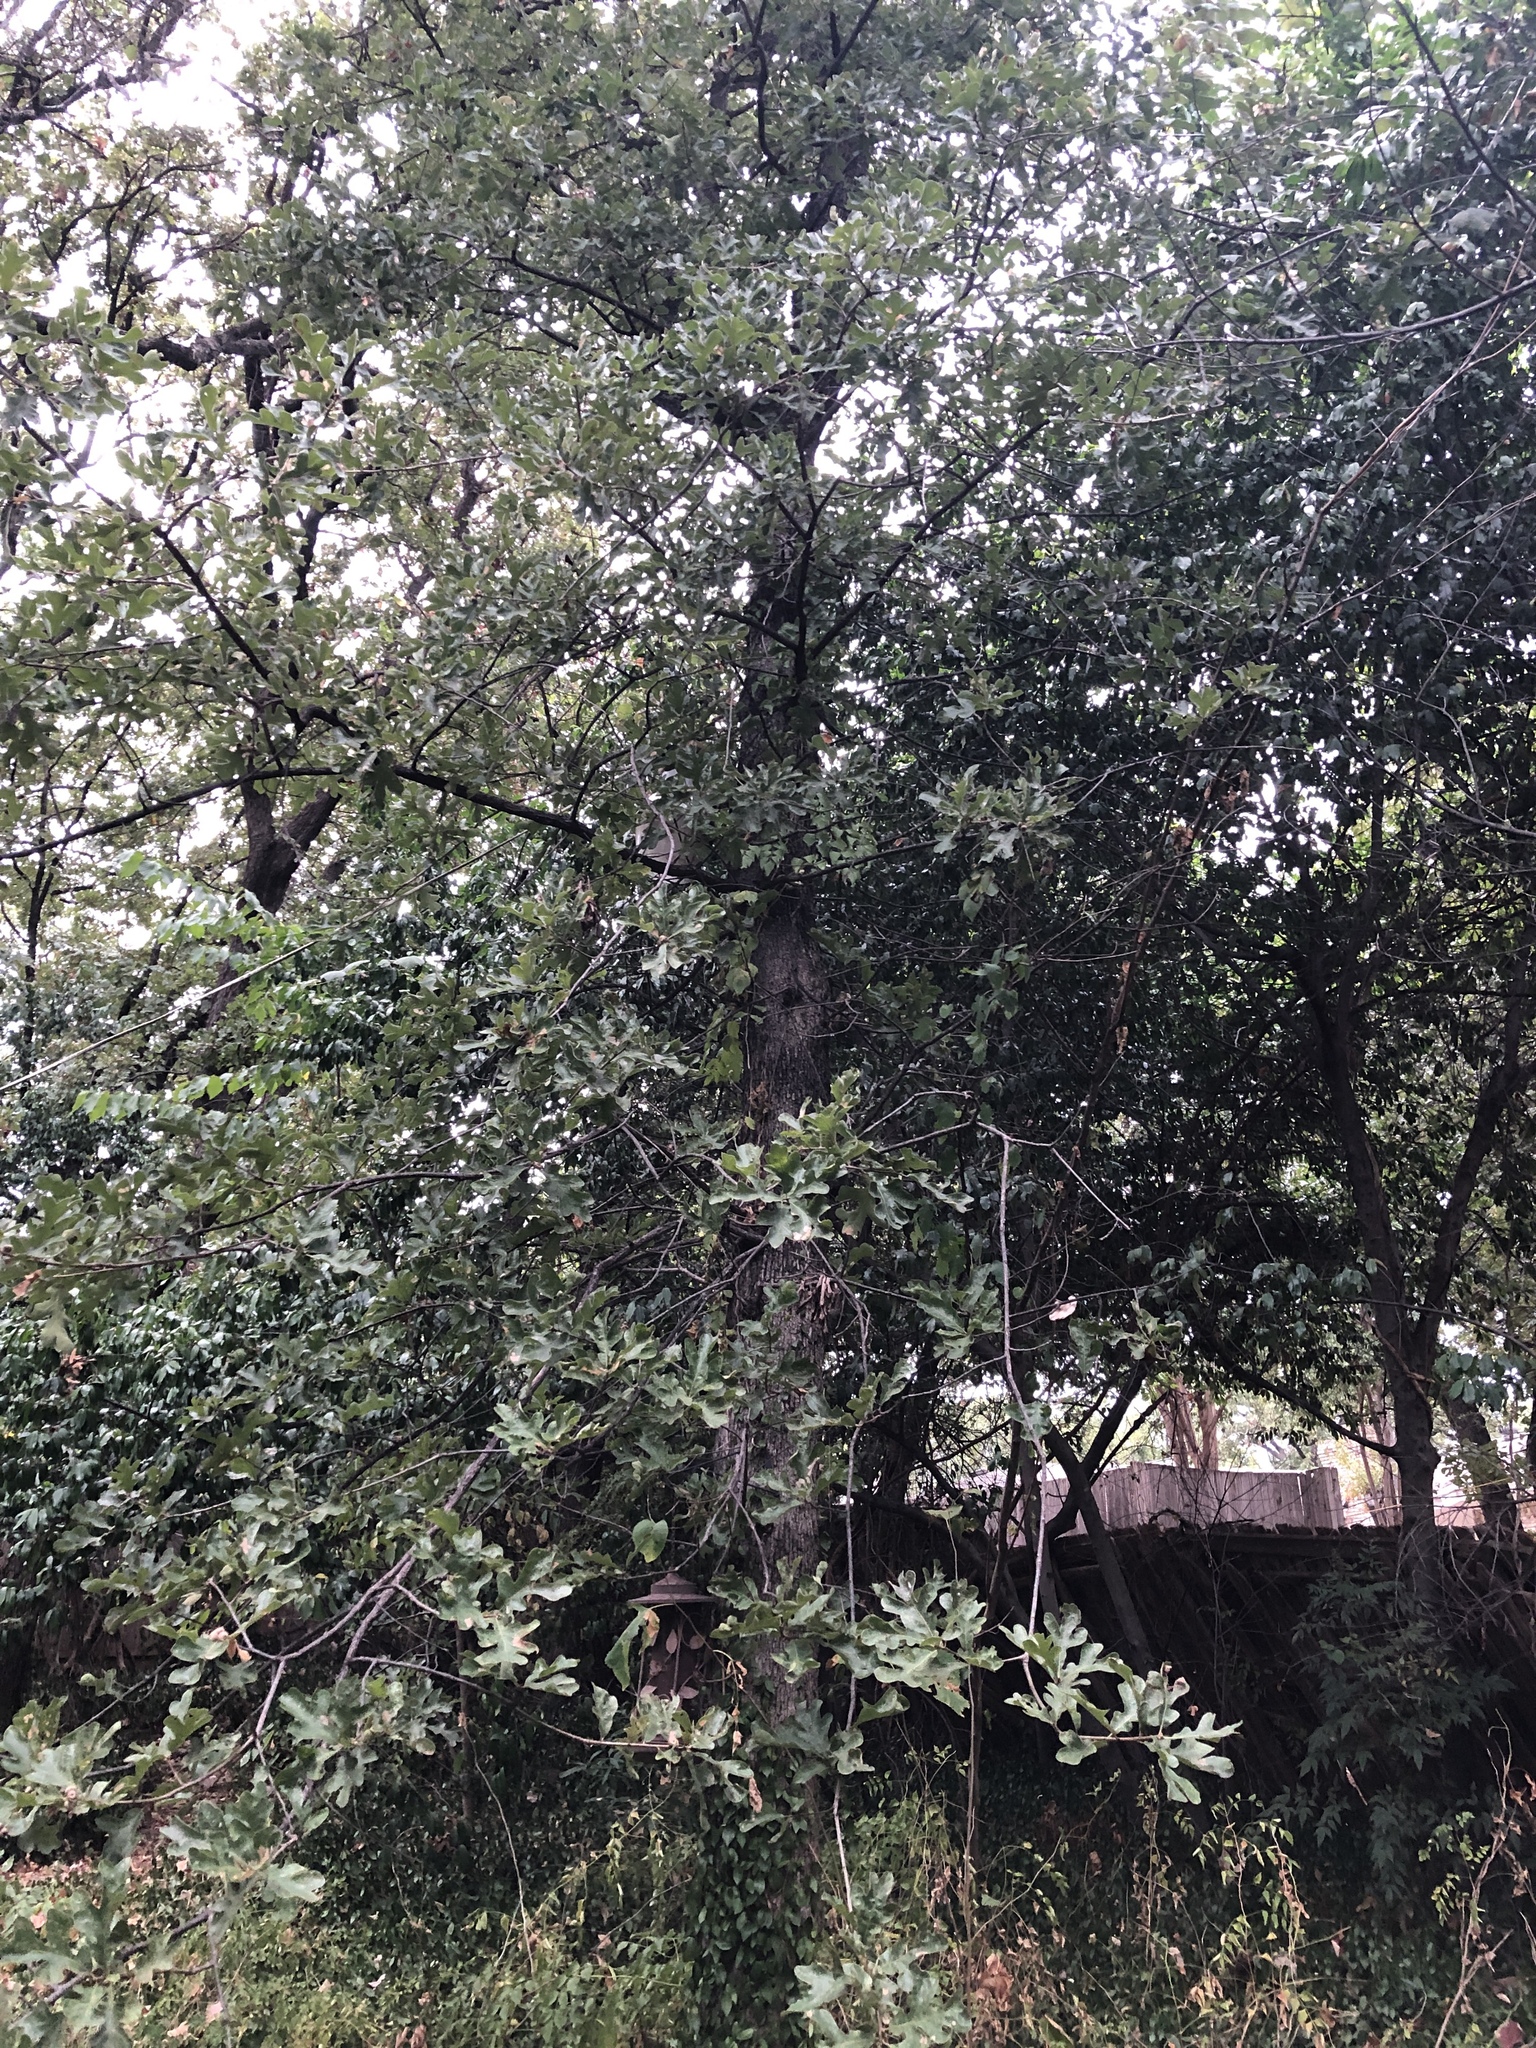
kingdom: Plantae
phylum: Tracheophyta
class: Magnoliopsida
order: Fagales
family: Fagaceae
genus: Quercus
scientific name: Quercus stellata
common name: Post oak
